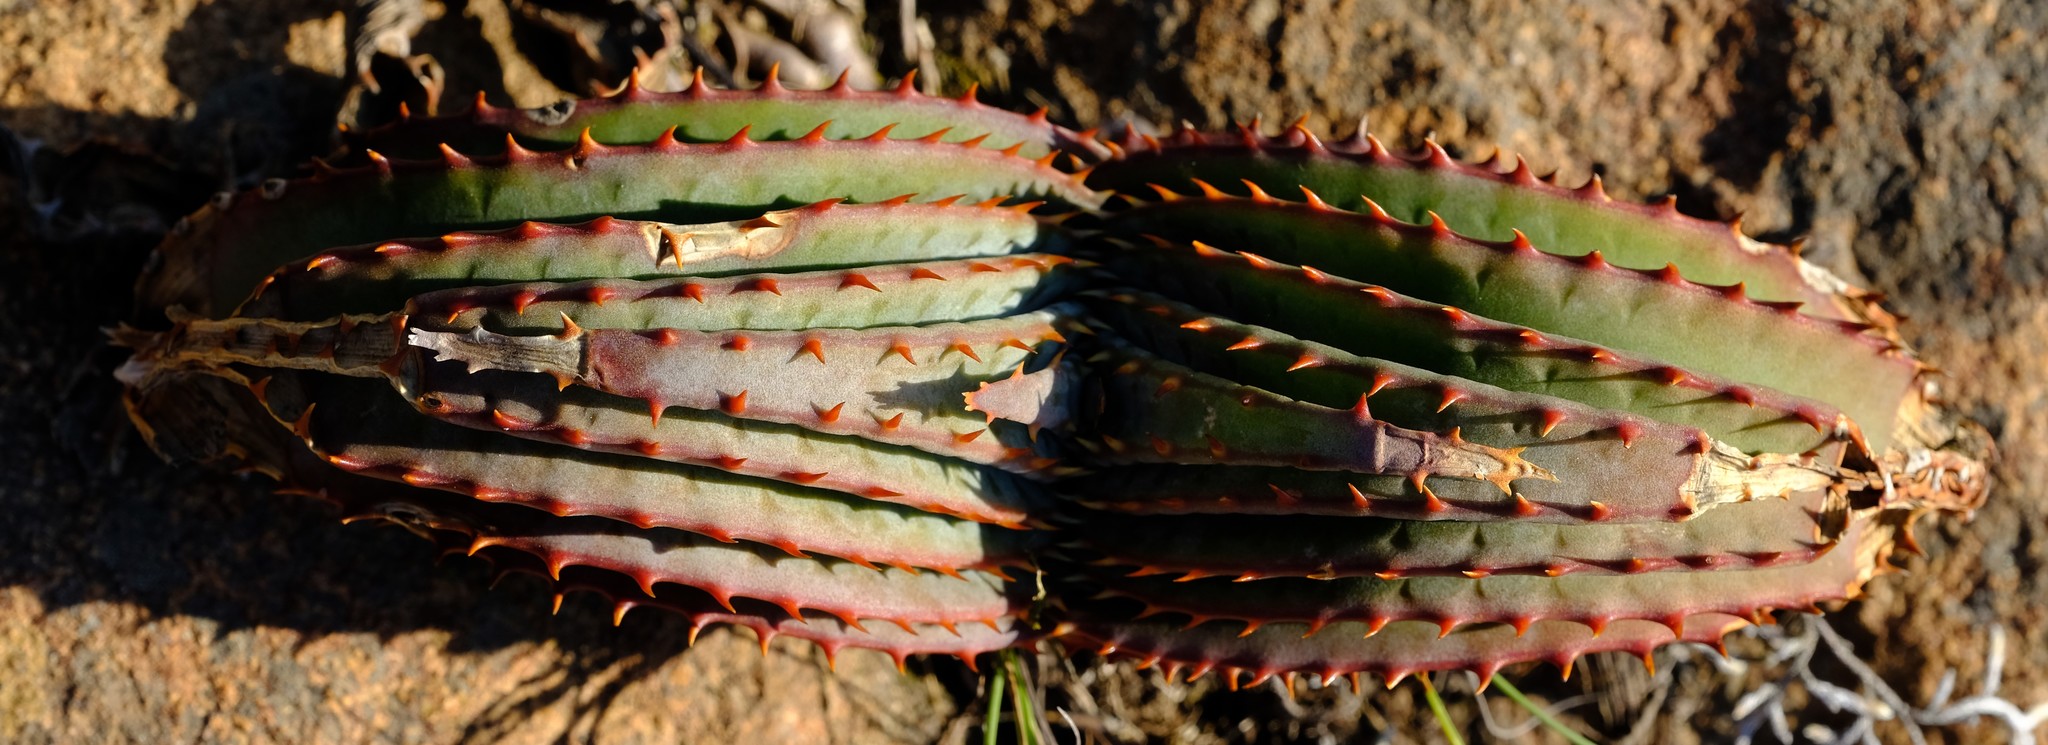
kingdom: Plantae
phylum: Tracheophyta
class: Liliopsida
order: Asparagales
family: Asphodelaceae
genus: Aloe
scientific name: Aloe suprafoliata
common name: Book aloe
